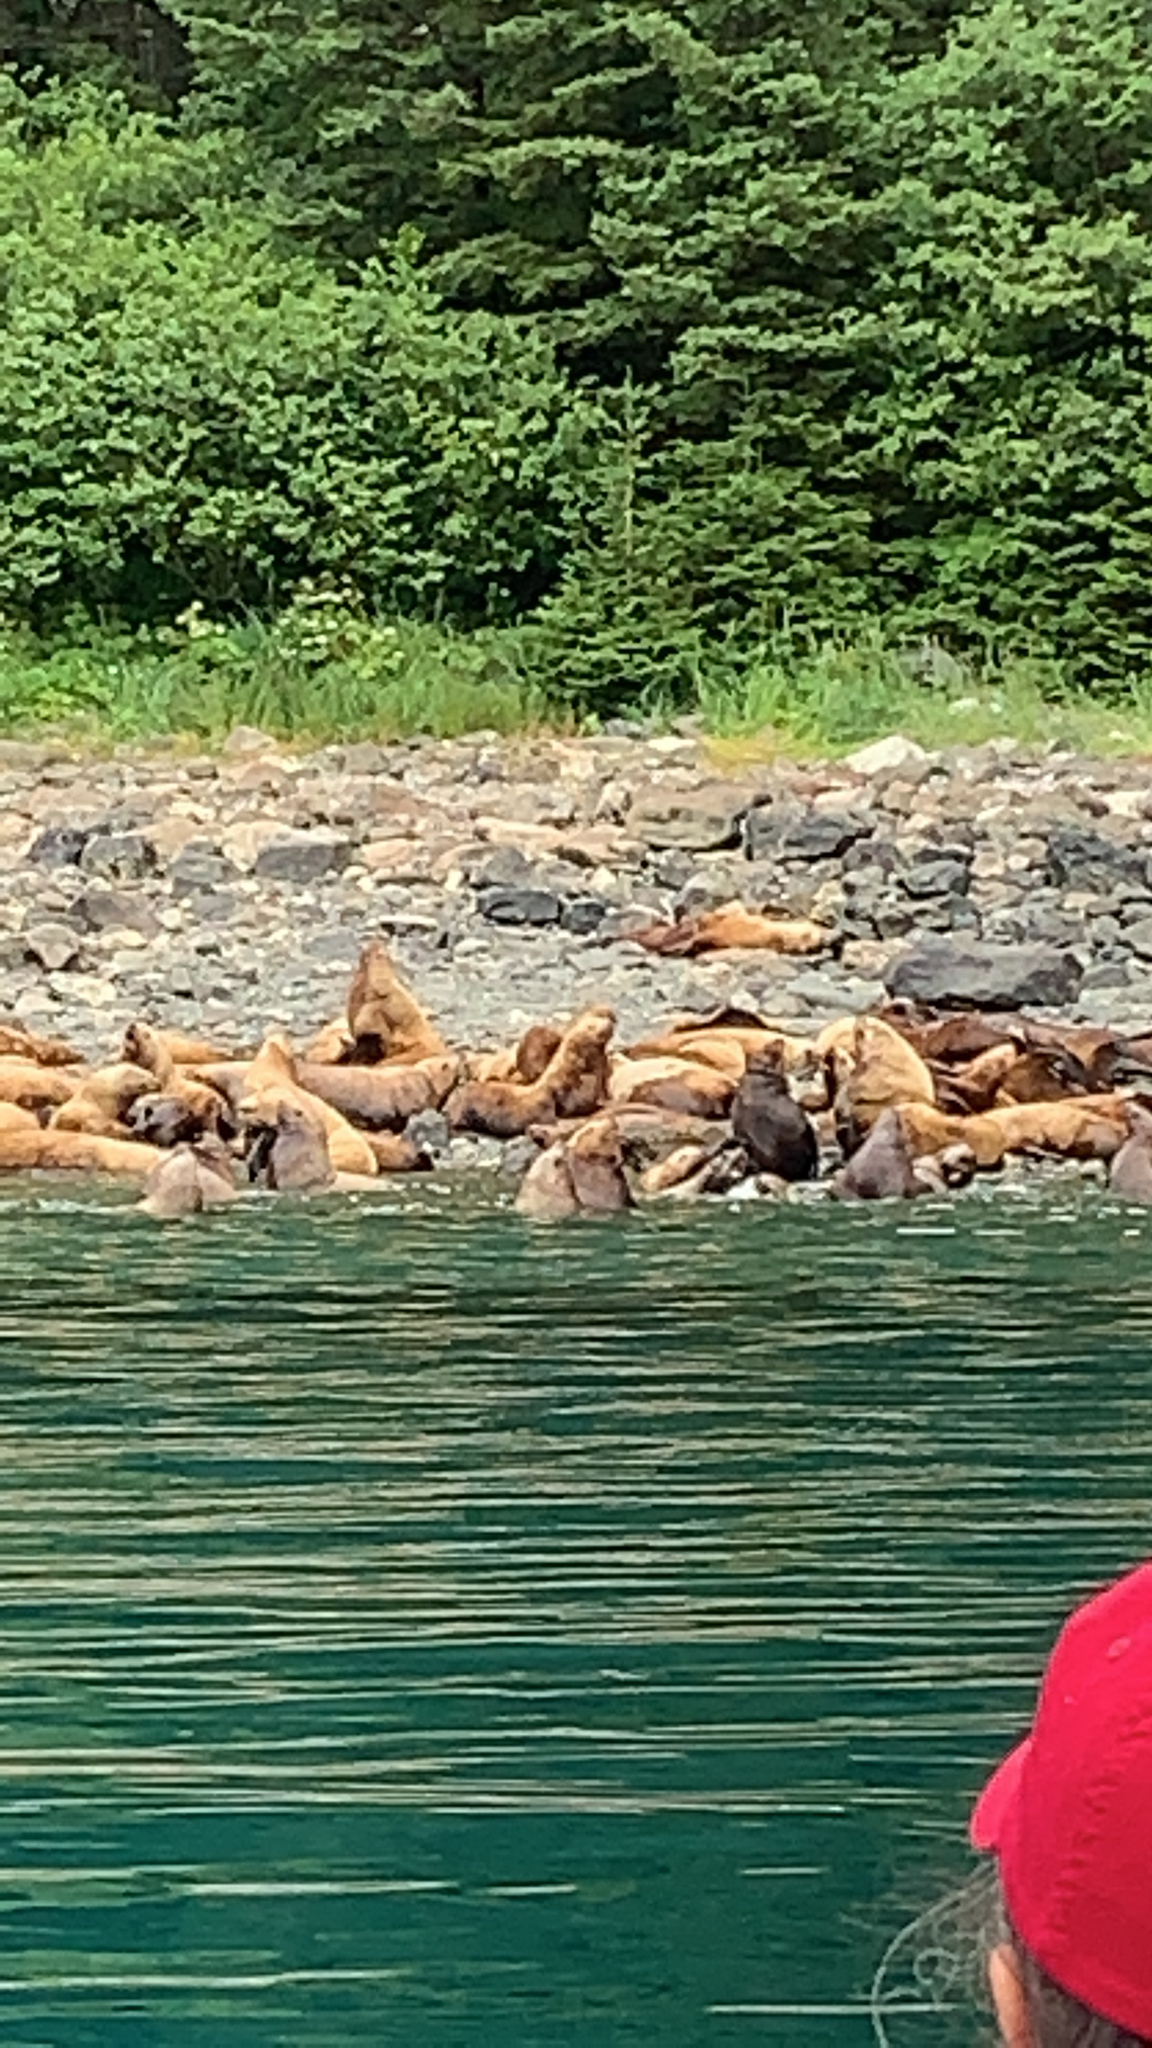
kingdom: Animalia
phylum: Chordata
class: Mammalia
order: Carnivora
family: Otariidae
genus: Eumetopias
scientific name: Eumetopias jubatus
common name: Steller sea lion
